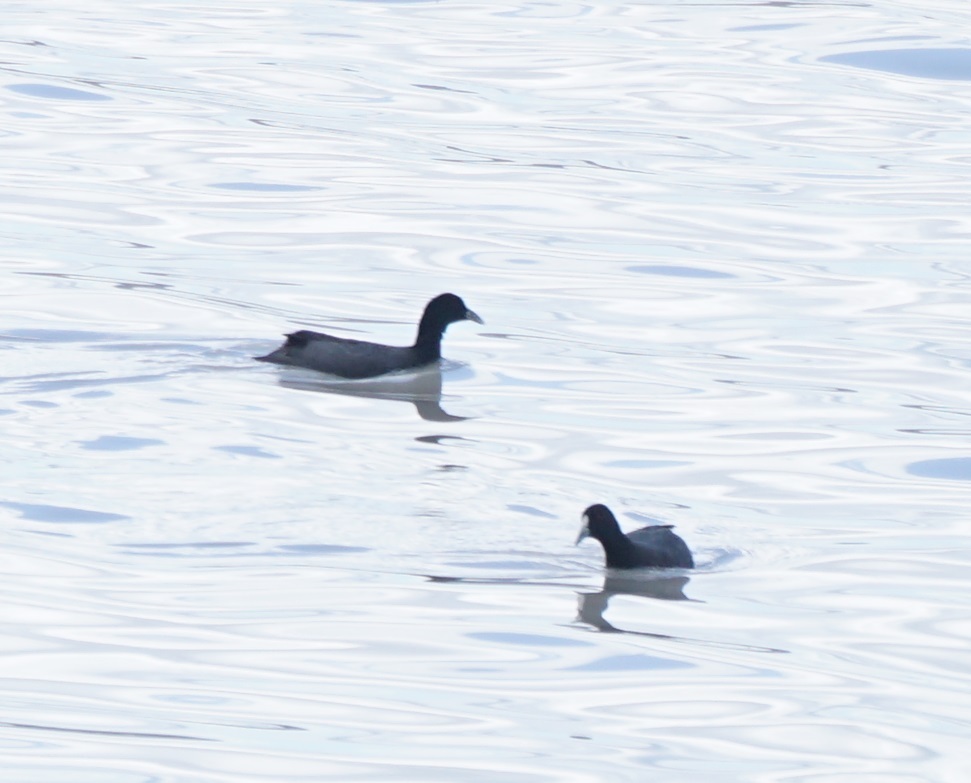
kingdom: Animalia
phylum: Chordata
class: Aves
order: Gruiformes
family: Rallidae
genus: Fulica
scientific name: Fulica atra
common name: Eurasian coot
